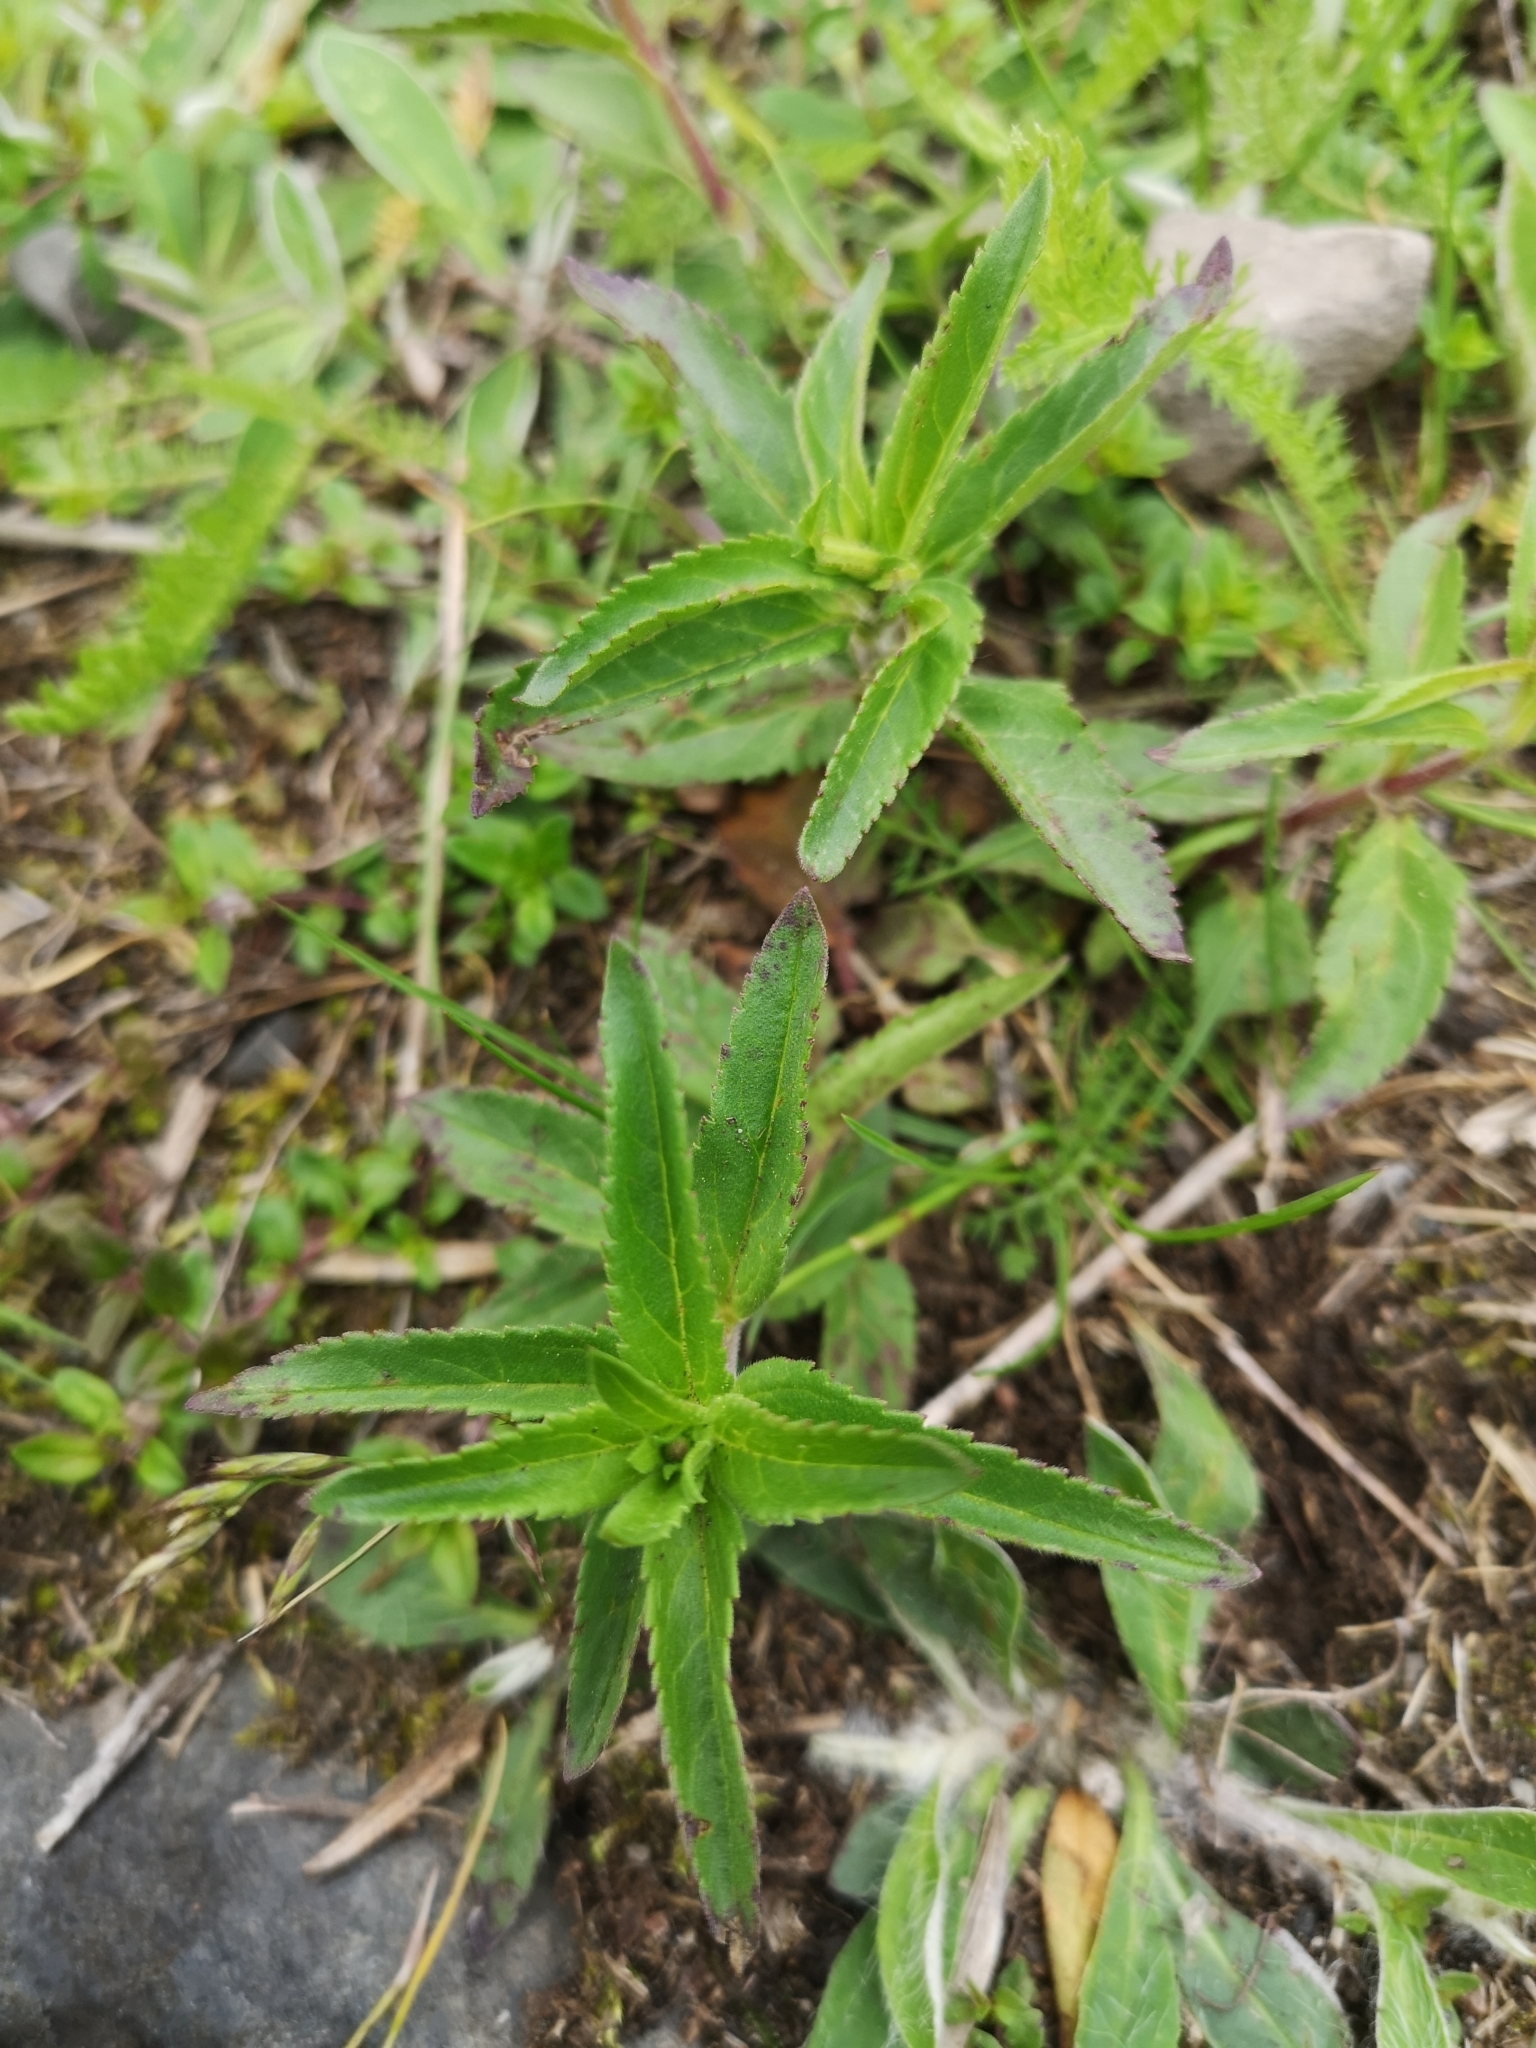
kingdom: Plantae
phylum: Tracheophyta
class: Magnoliopsida
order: Lamiales
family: Plantaginaceae
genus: Veronica
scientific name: Veronica spicata
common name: Spiked speedwell
